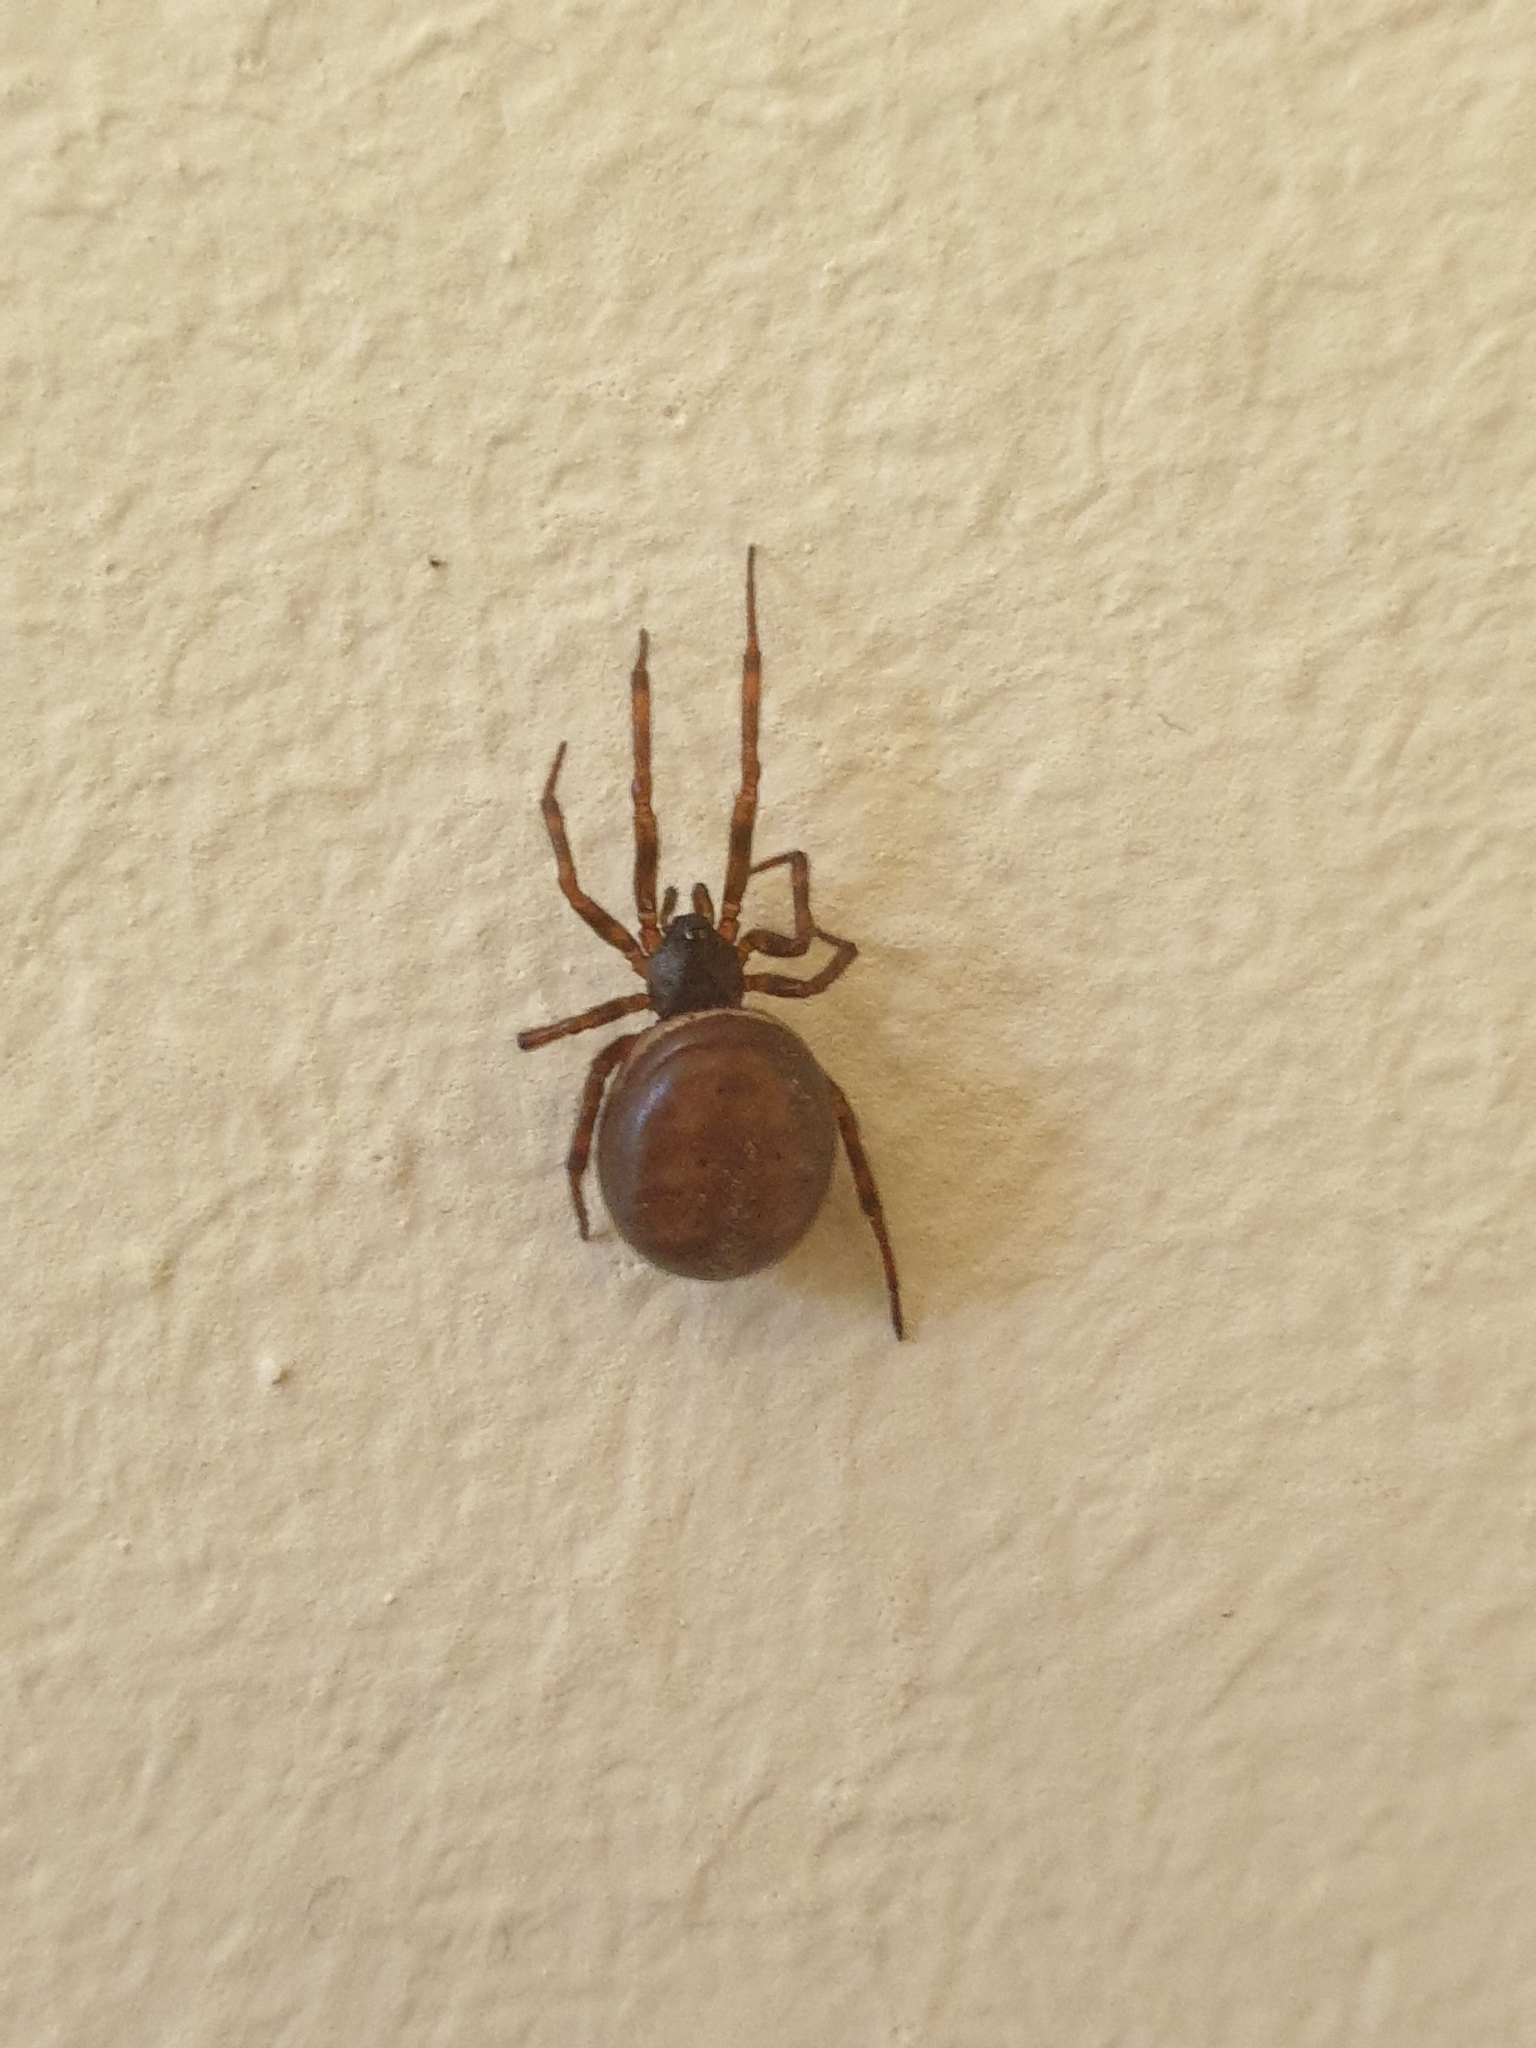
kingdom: Animalia
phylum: Arthropoda
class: Arachnida
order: Araneae
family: Theridiidae
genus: Steatoda
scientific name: Steatoda bipunctata
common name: False widow
